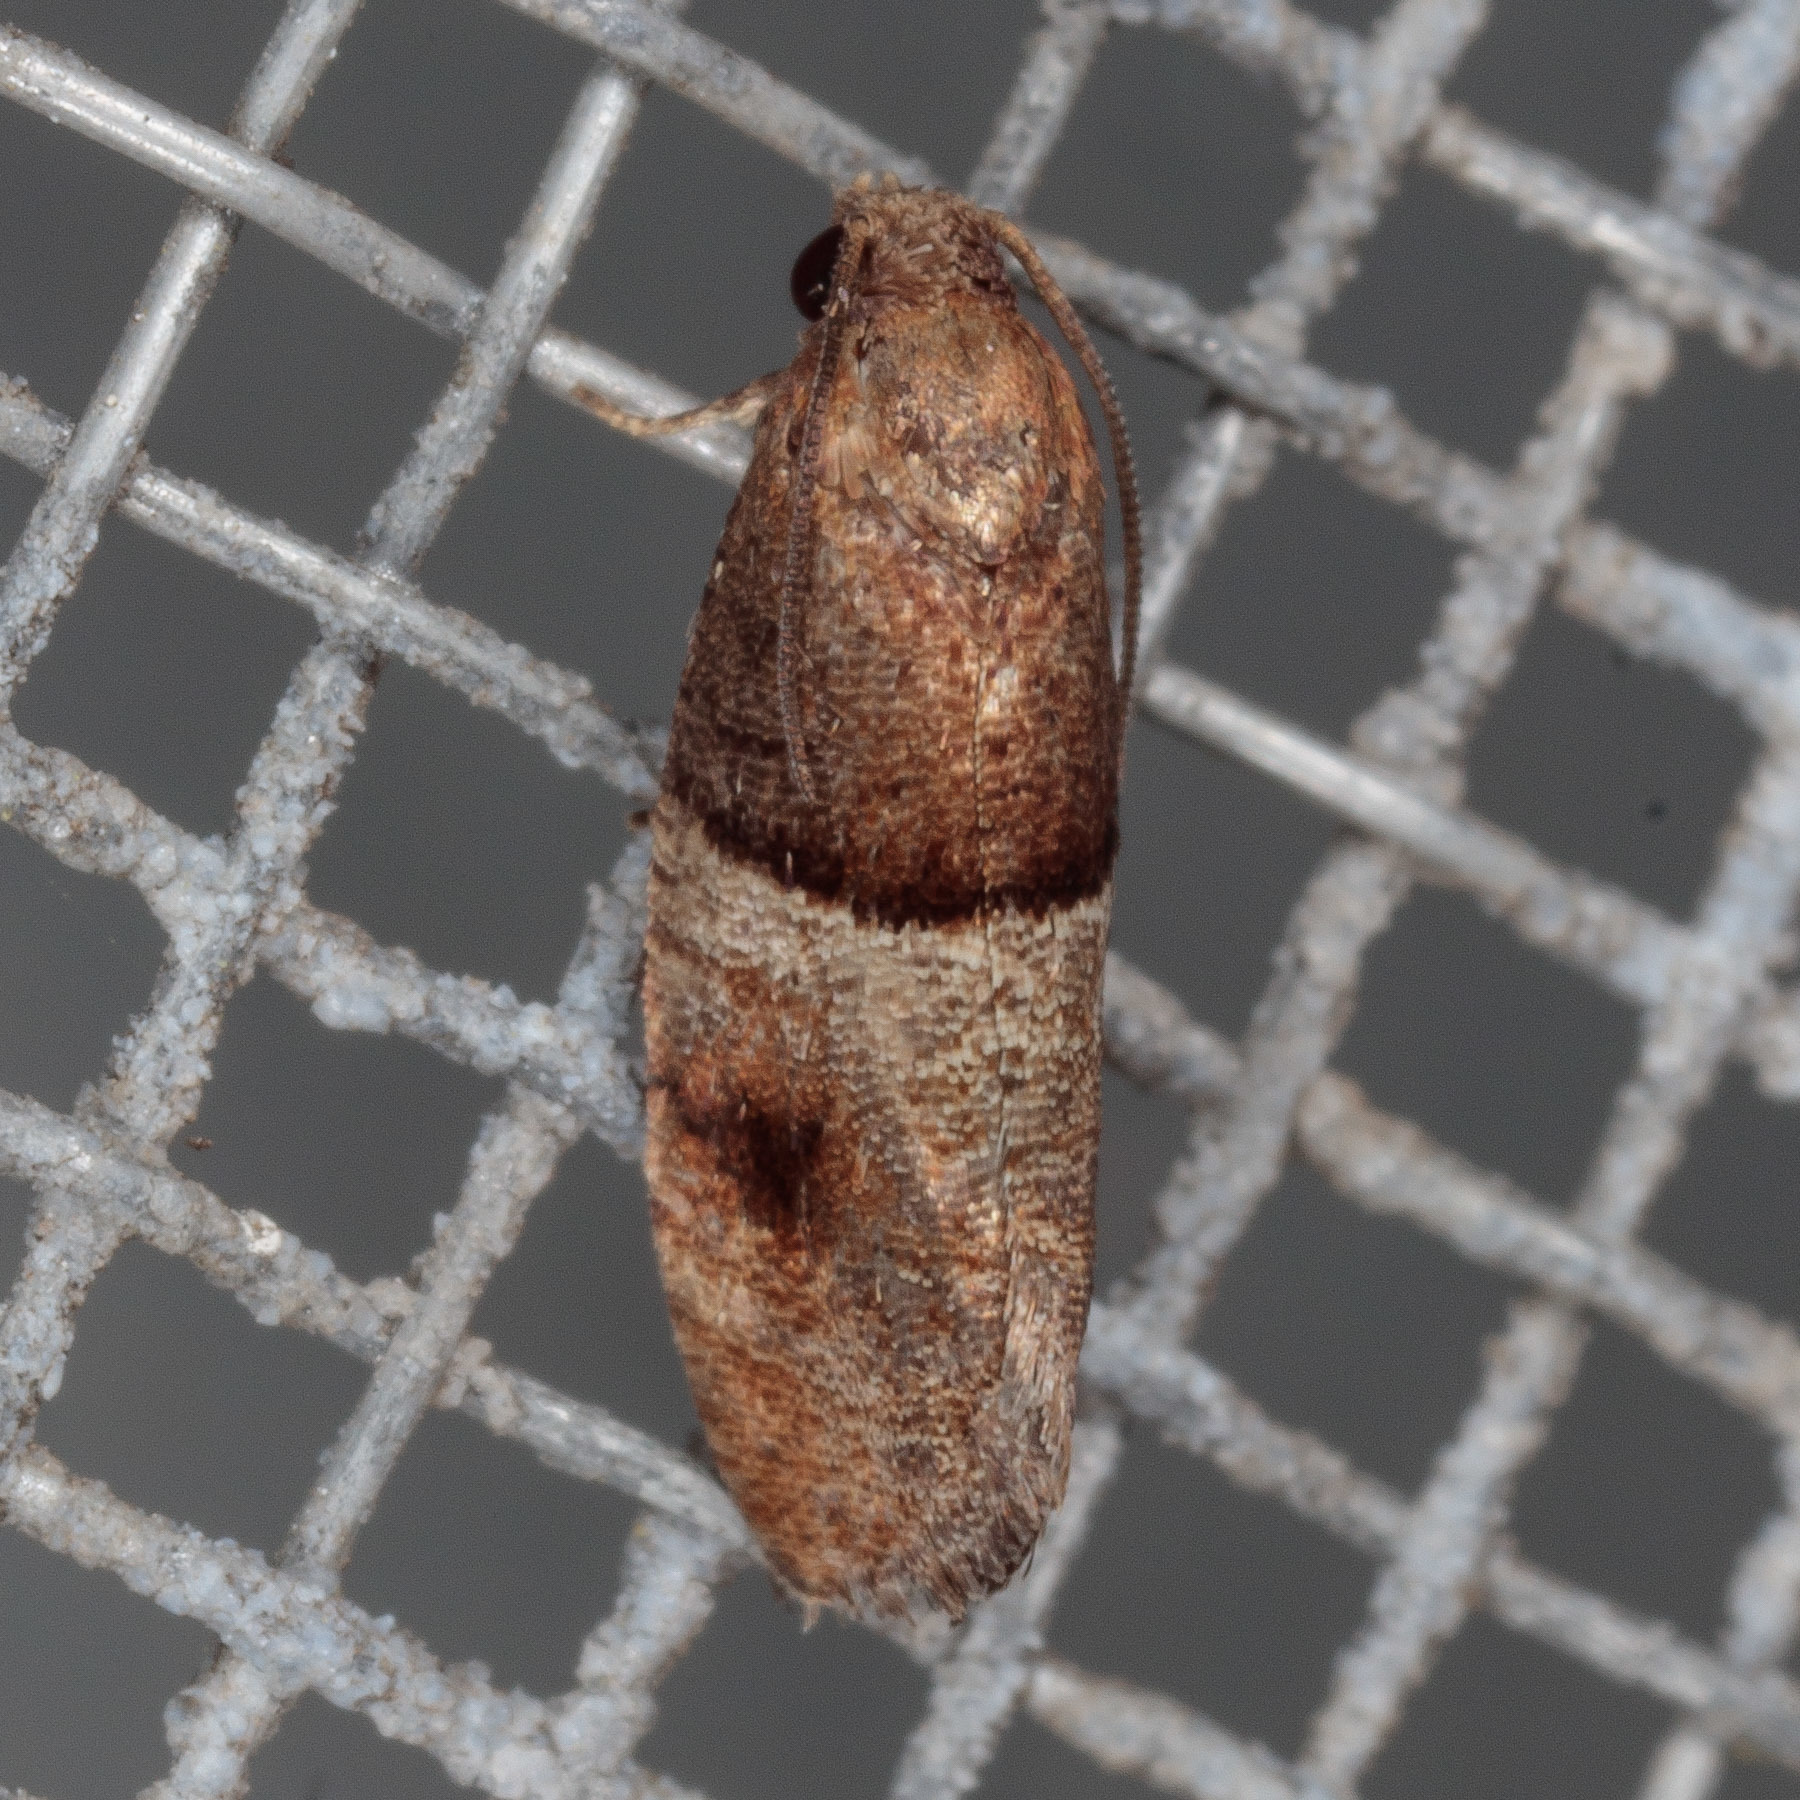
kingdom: Animalia
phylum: Arthropoda
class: Insecta
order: Lepidoptera
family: Tortricidae
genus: Larisa
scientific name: Larisa subsolana
